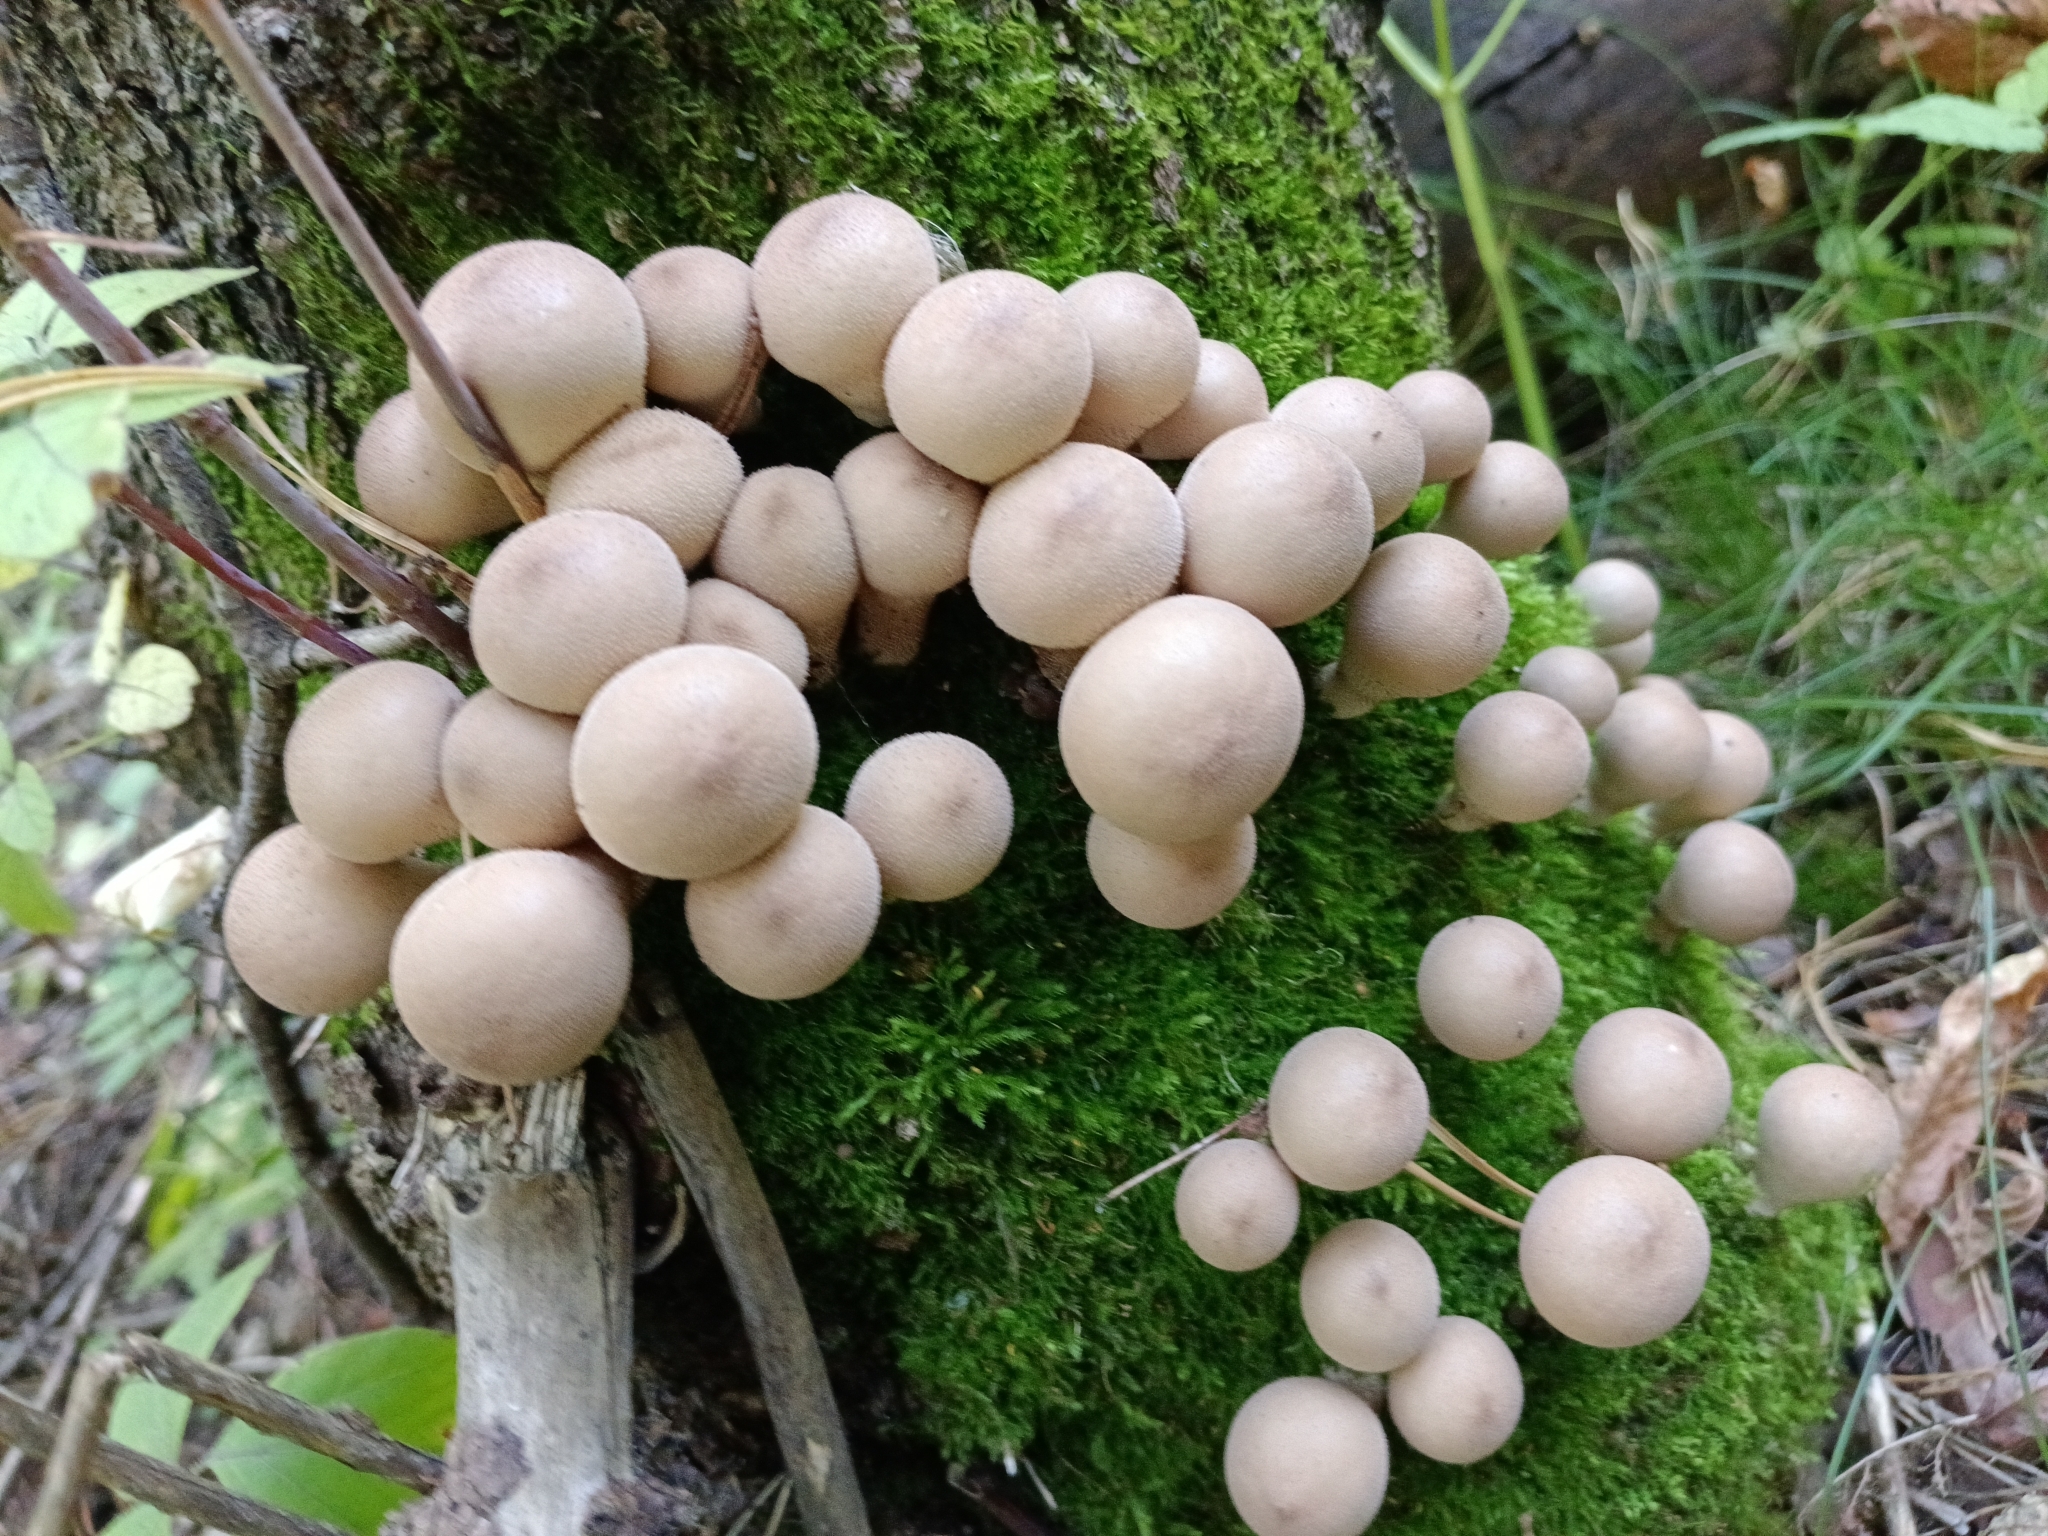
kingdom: Fungi
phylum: Basidiomycota
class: Agaricomycetes
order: Agaricales
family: Lycoperdaceae
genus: Apioperdon
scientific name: Apioperdon pyriforme
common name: Pear-shaped puffball
